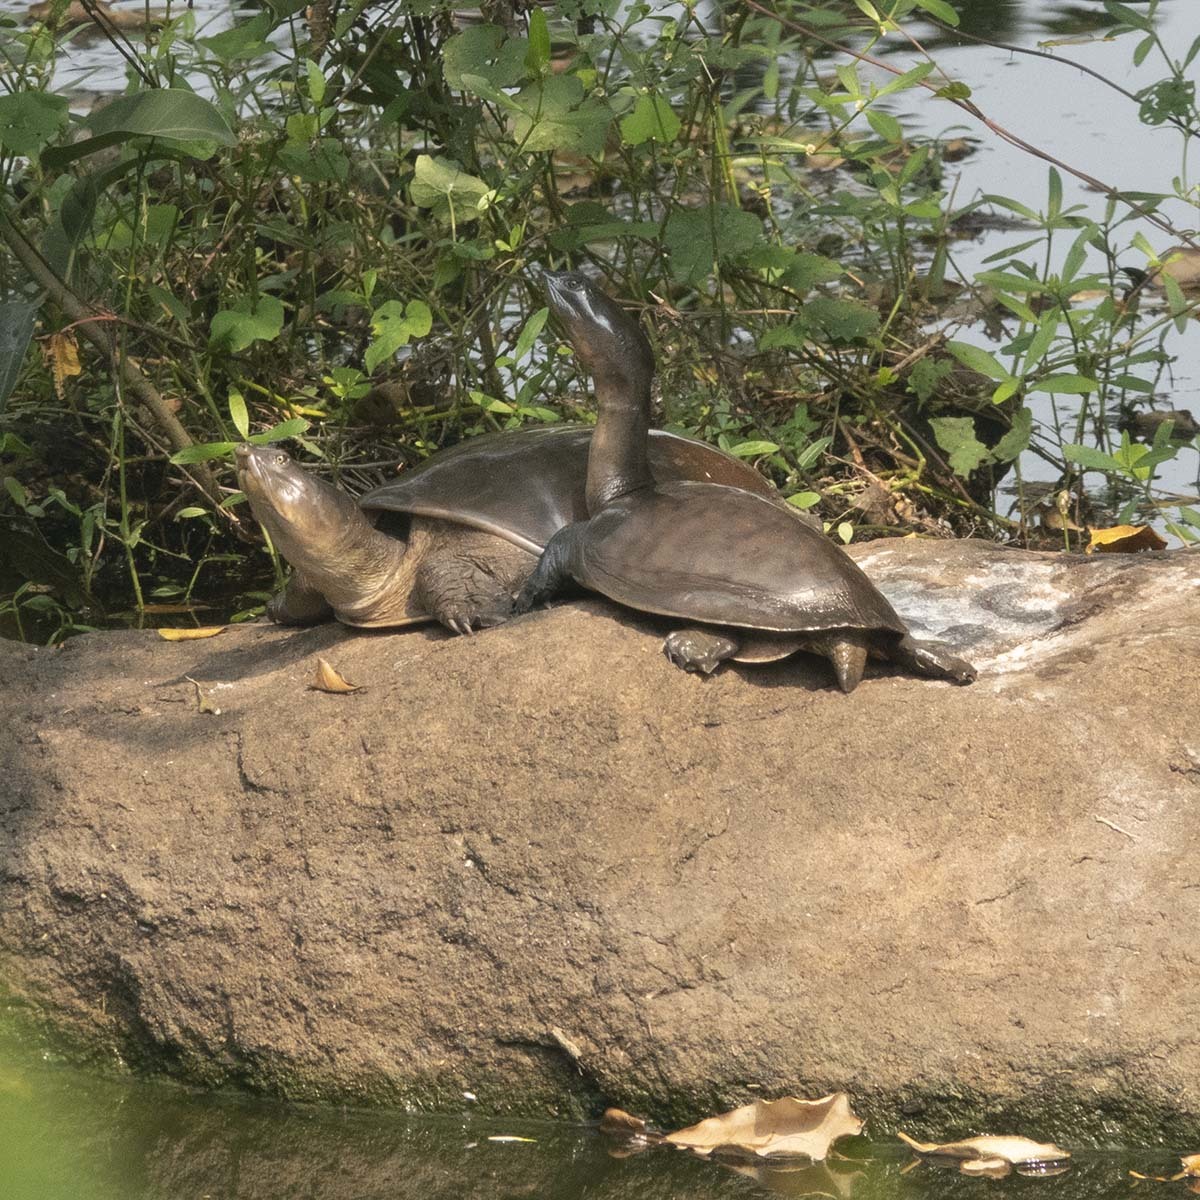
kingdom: Animalia
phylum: Chordata
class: Testudines
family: Trionychidae
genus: Lissemys
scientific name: Lissemys punctata
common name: Indian flap-shelled turtle
